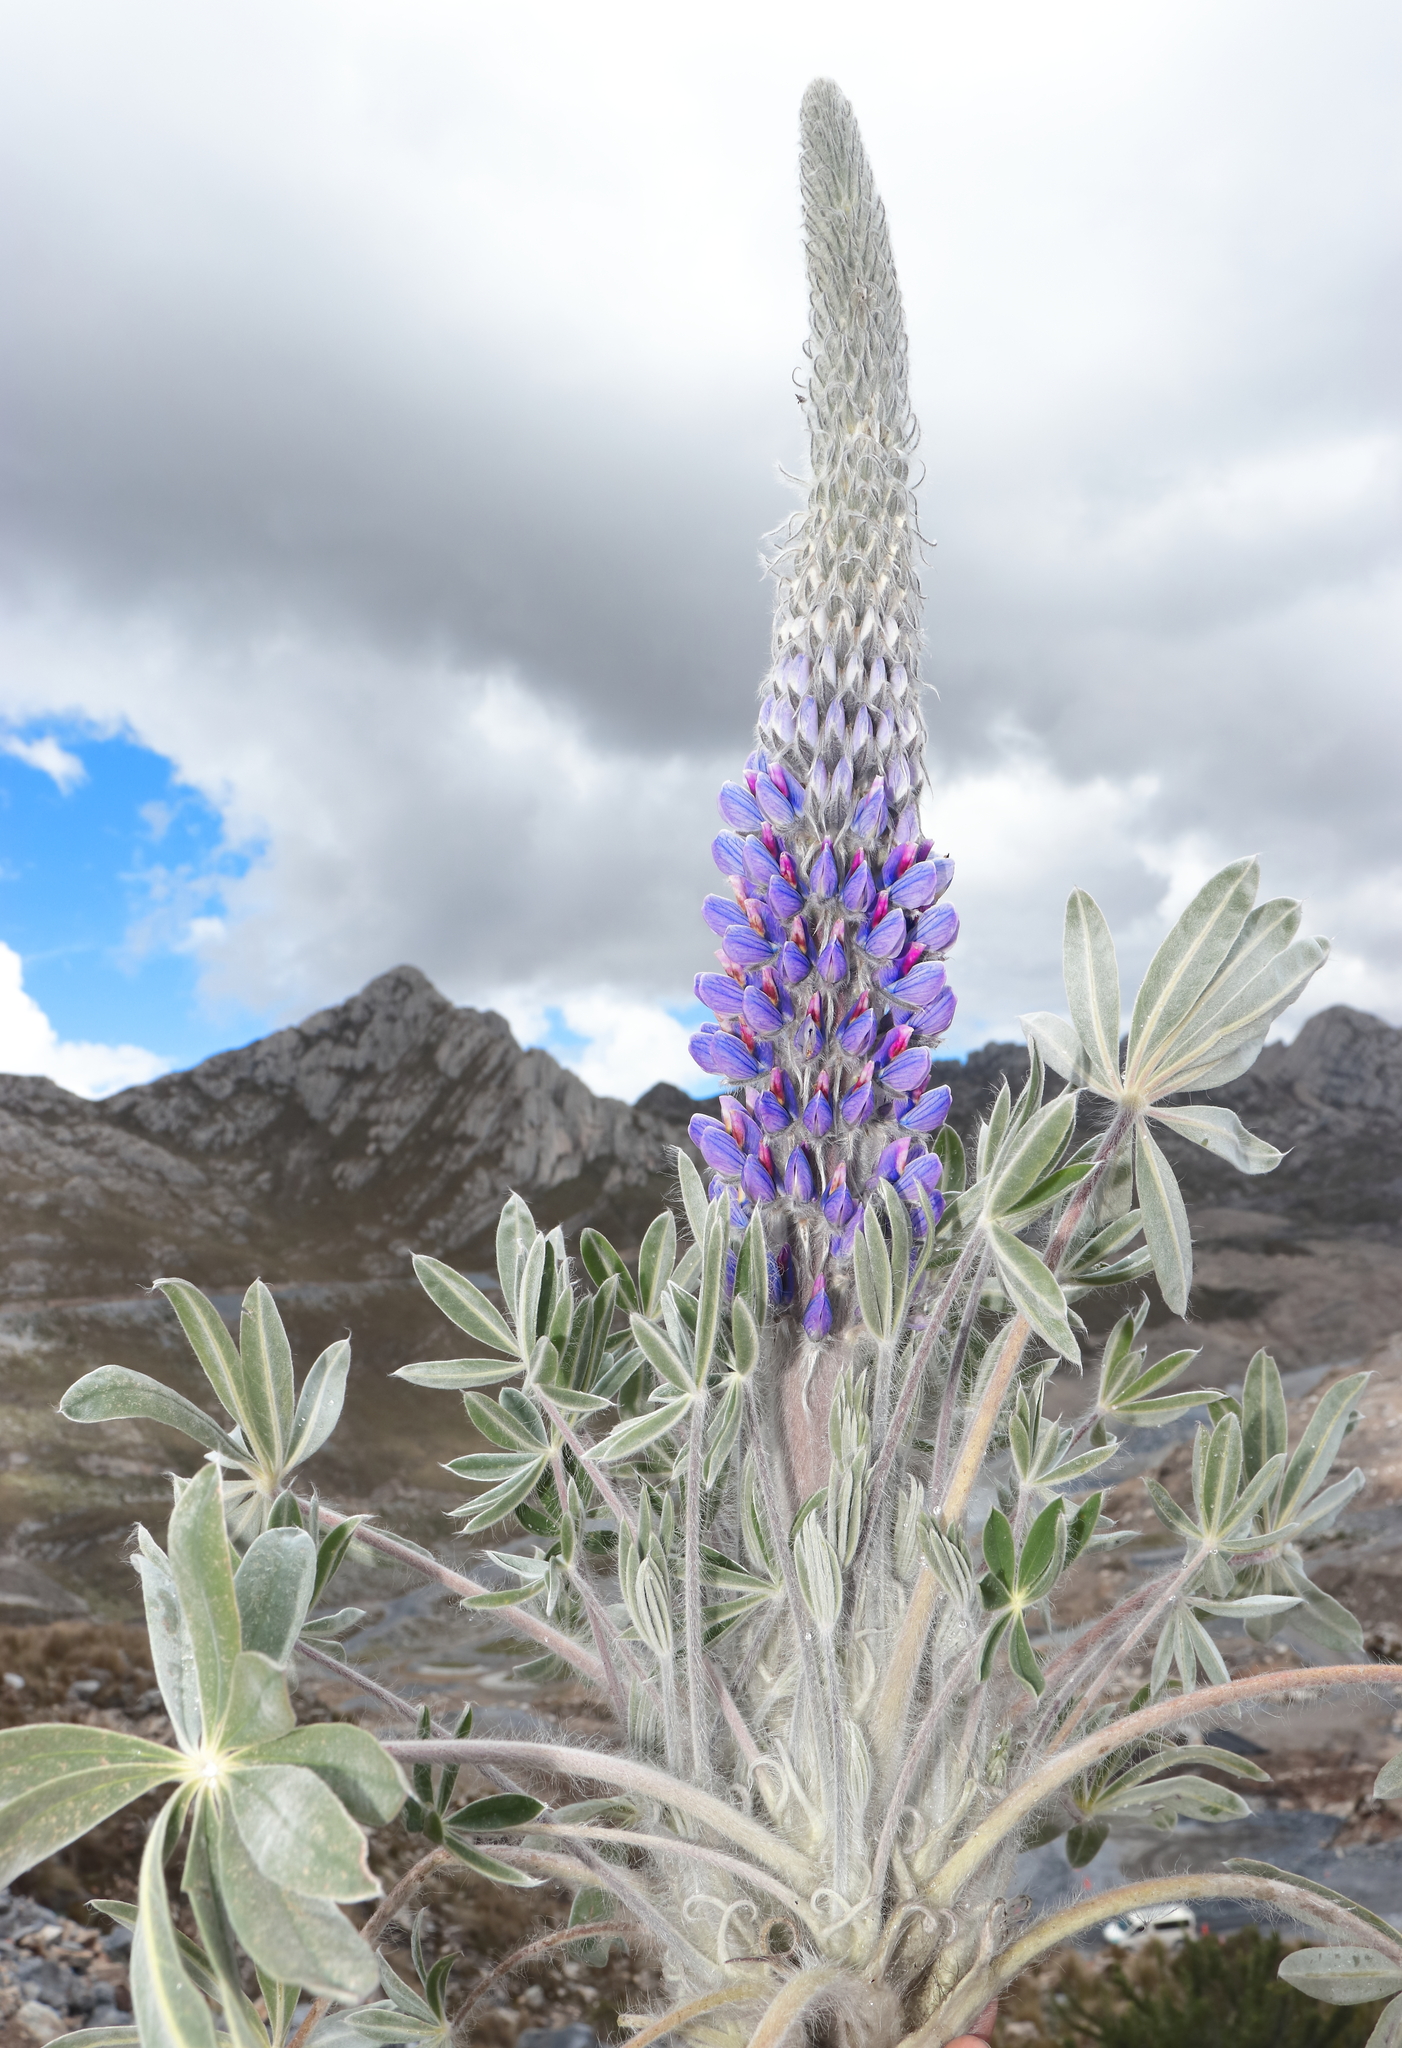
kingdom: Plantae
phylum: Tracheophyta
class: Magnoliopsida
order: Fabales
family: Fabaceae
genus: Lupinus
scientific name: Lupinus weberbaueri
